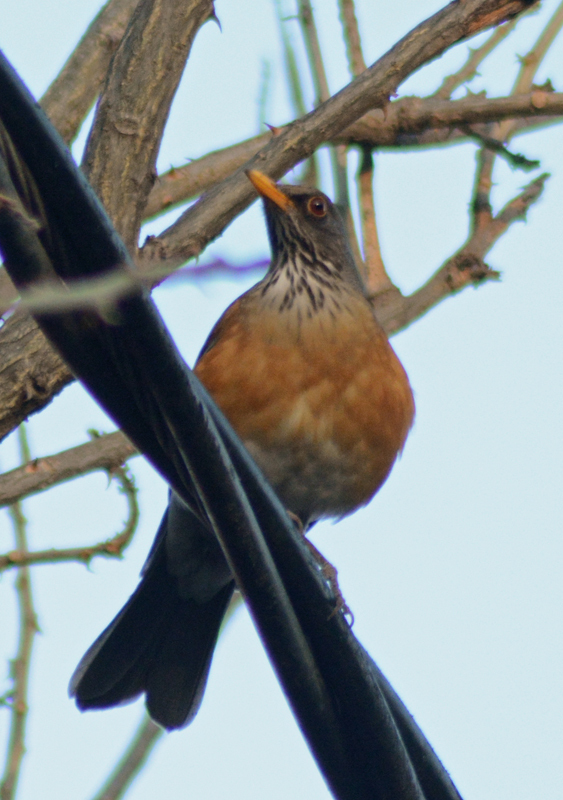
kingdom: Animalia
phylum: Chordata
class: Aves
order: Passeriformes
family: Turdidae
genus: Turdus
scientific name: Turdus rufopalliatus
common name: Rufous-backed robin
